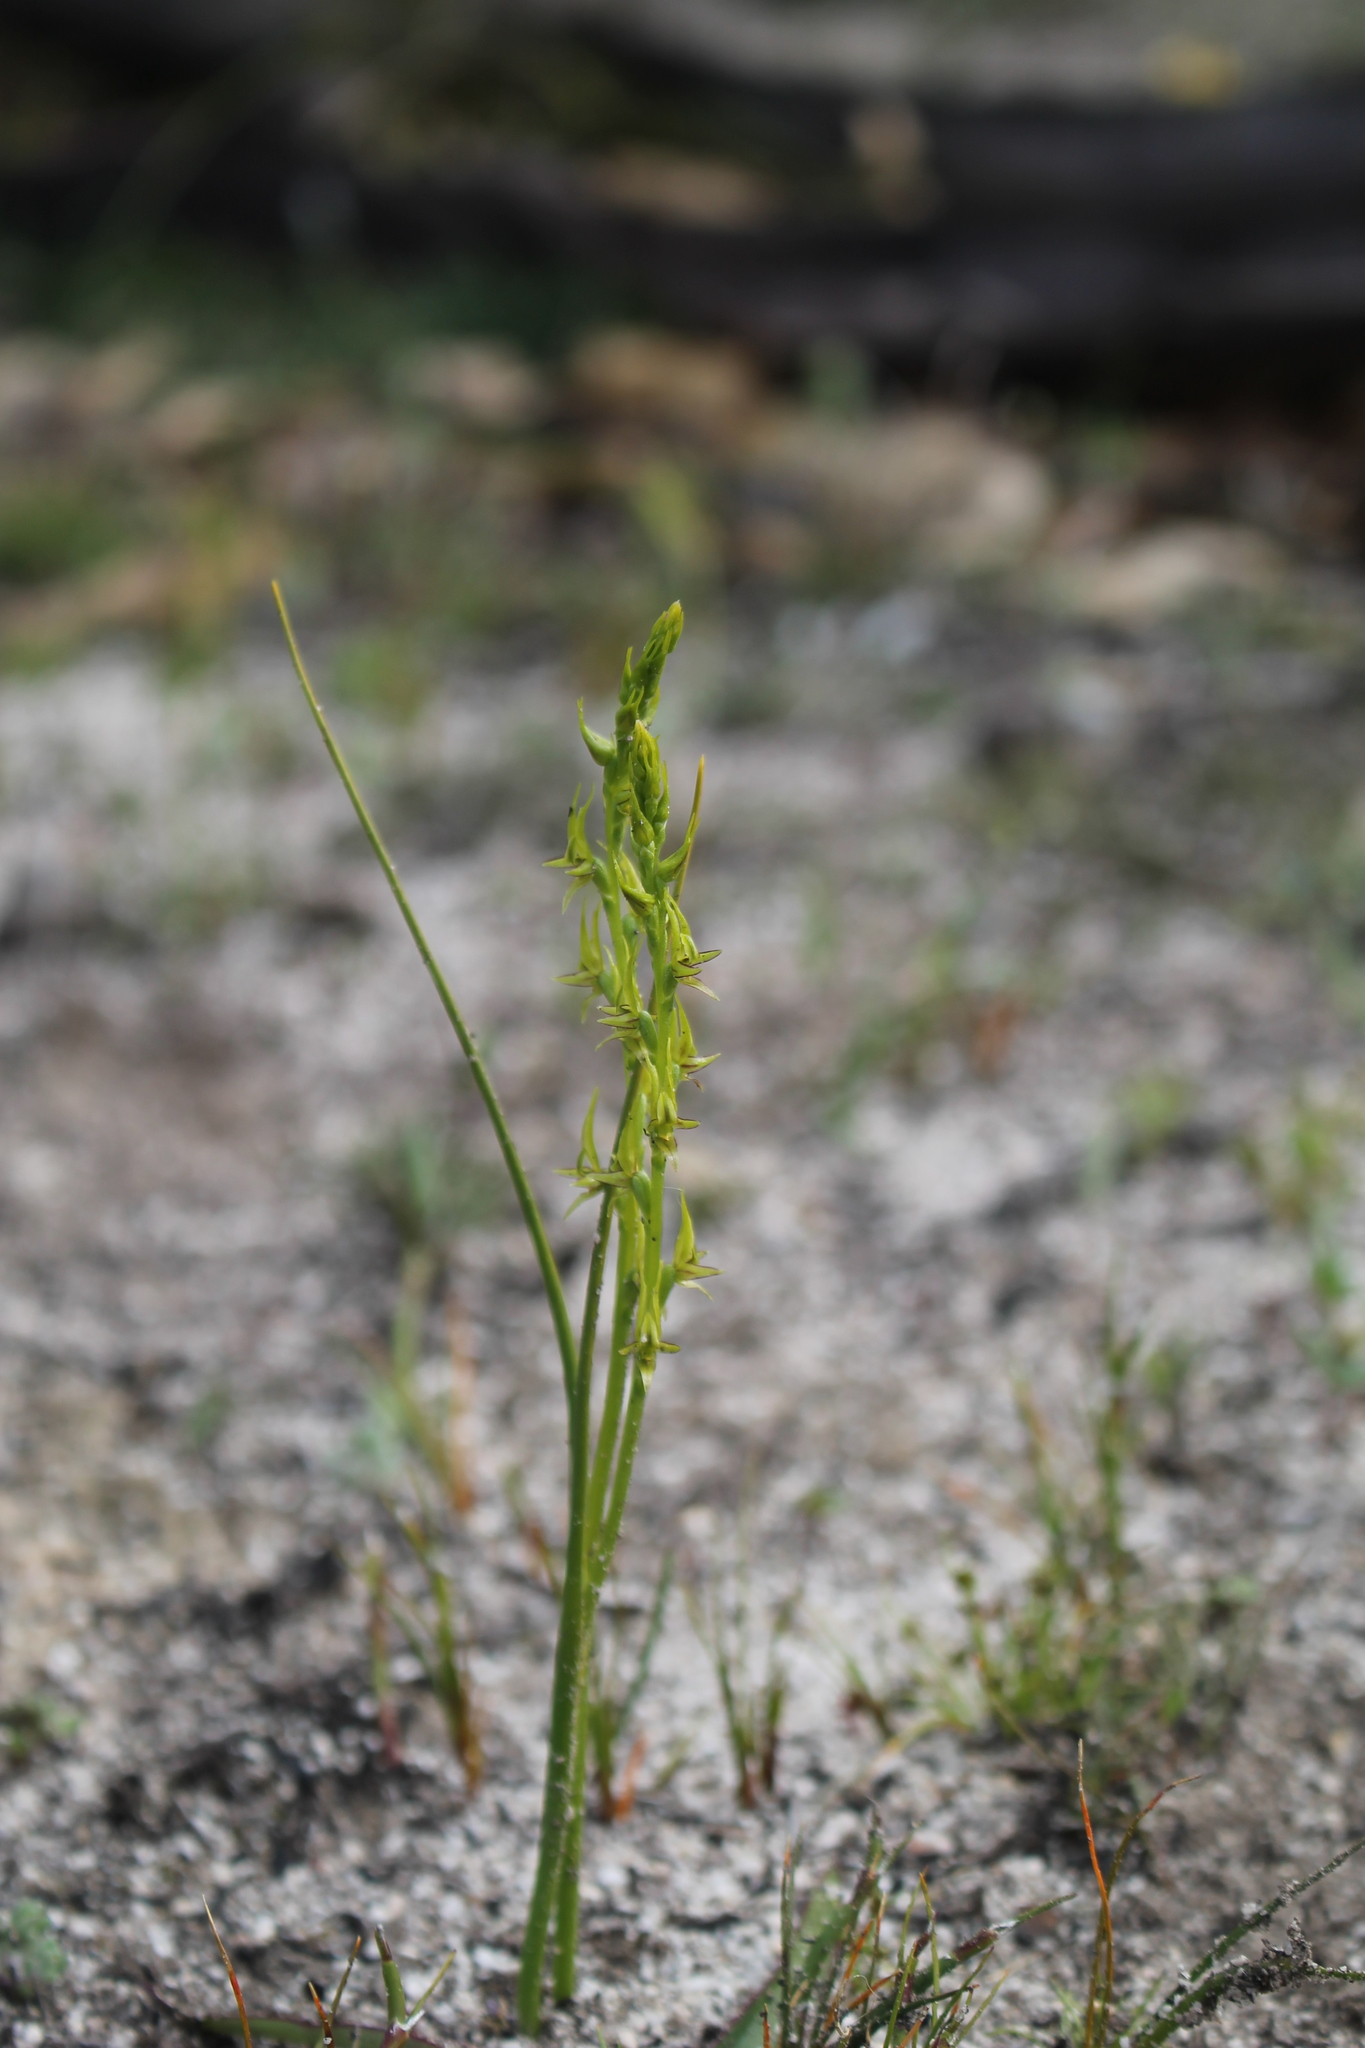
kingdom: Plantae
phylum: Tracheophyta
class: Liliopsida
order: Asparagales
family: Orchidaceae
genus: Prasophyllum
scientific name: Prasophyllum gracile
